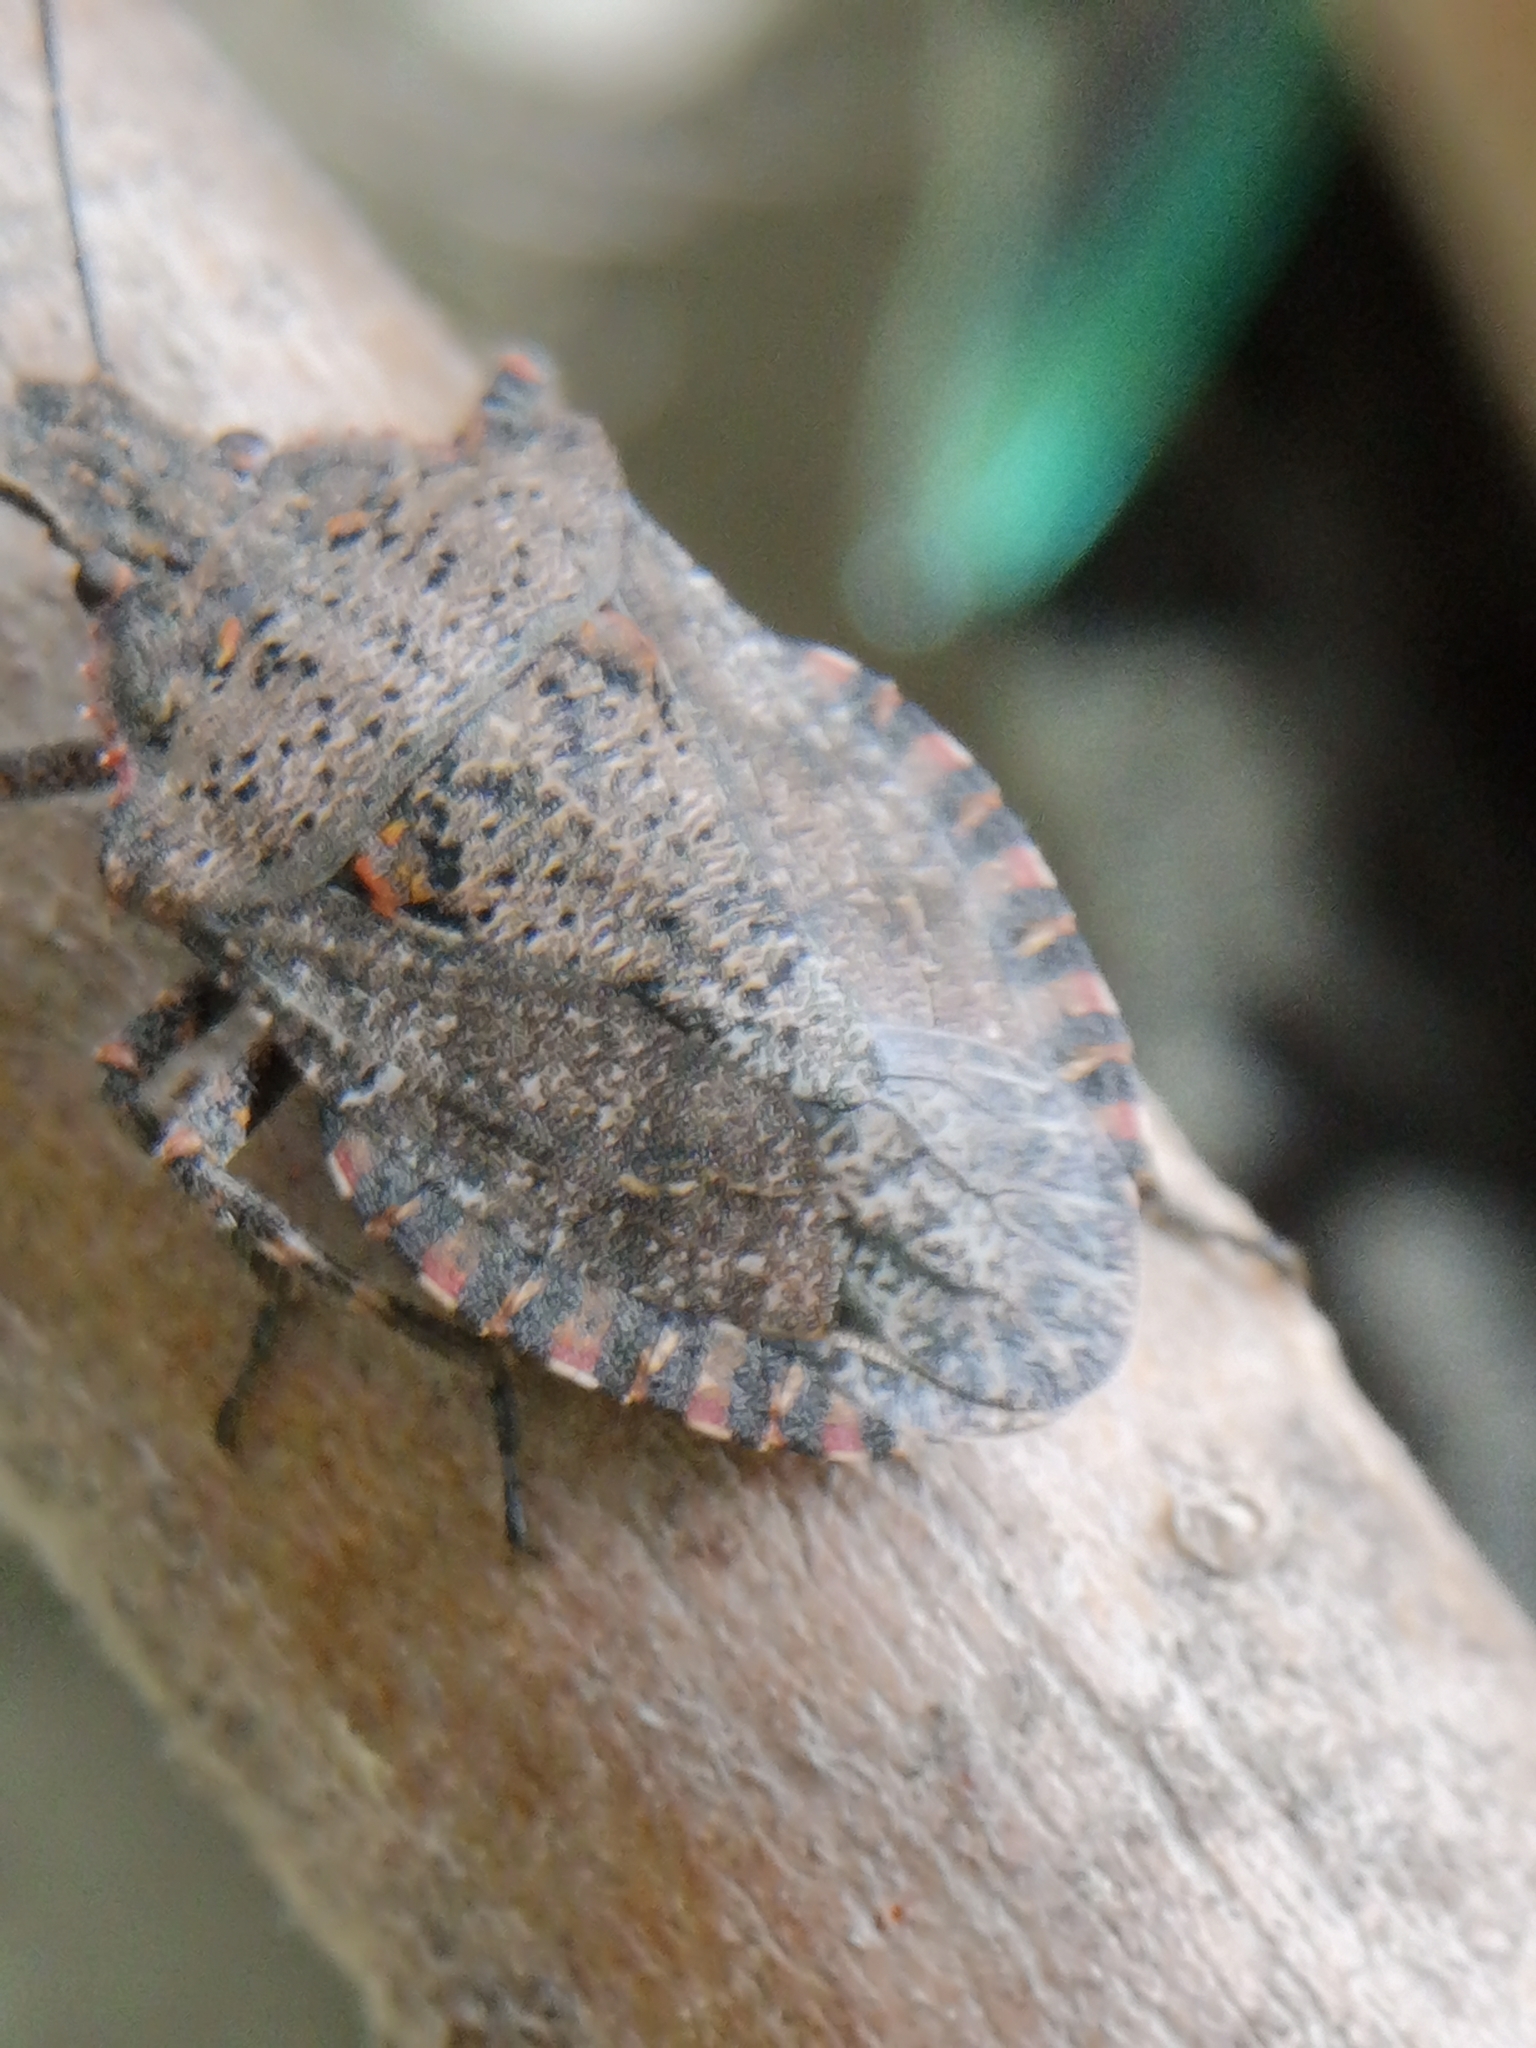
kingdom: Animalia
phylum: Arthropoda
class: Insecta
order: Hemiptera
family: Pentatomidae
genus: Brochymena
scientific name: Brochymena quadripustulata
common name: Four-humped stink bug
